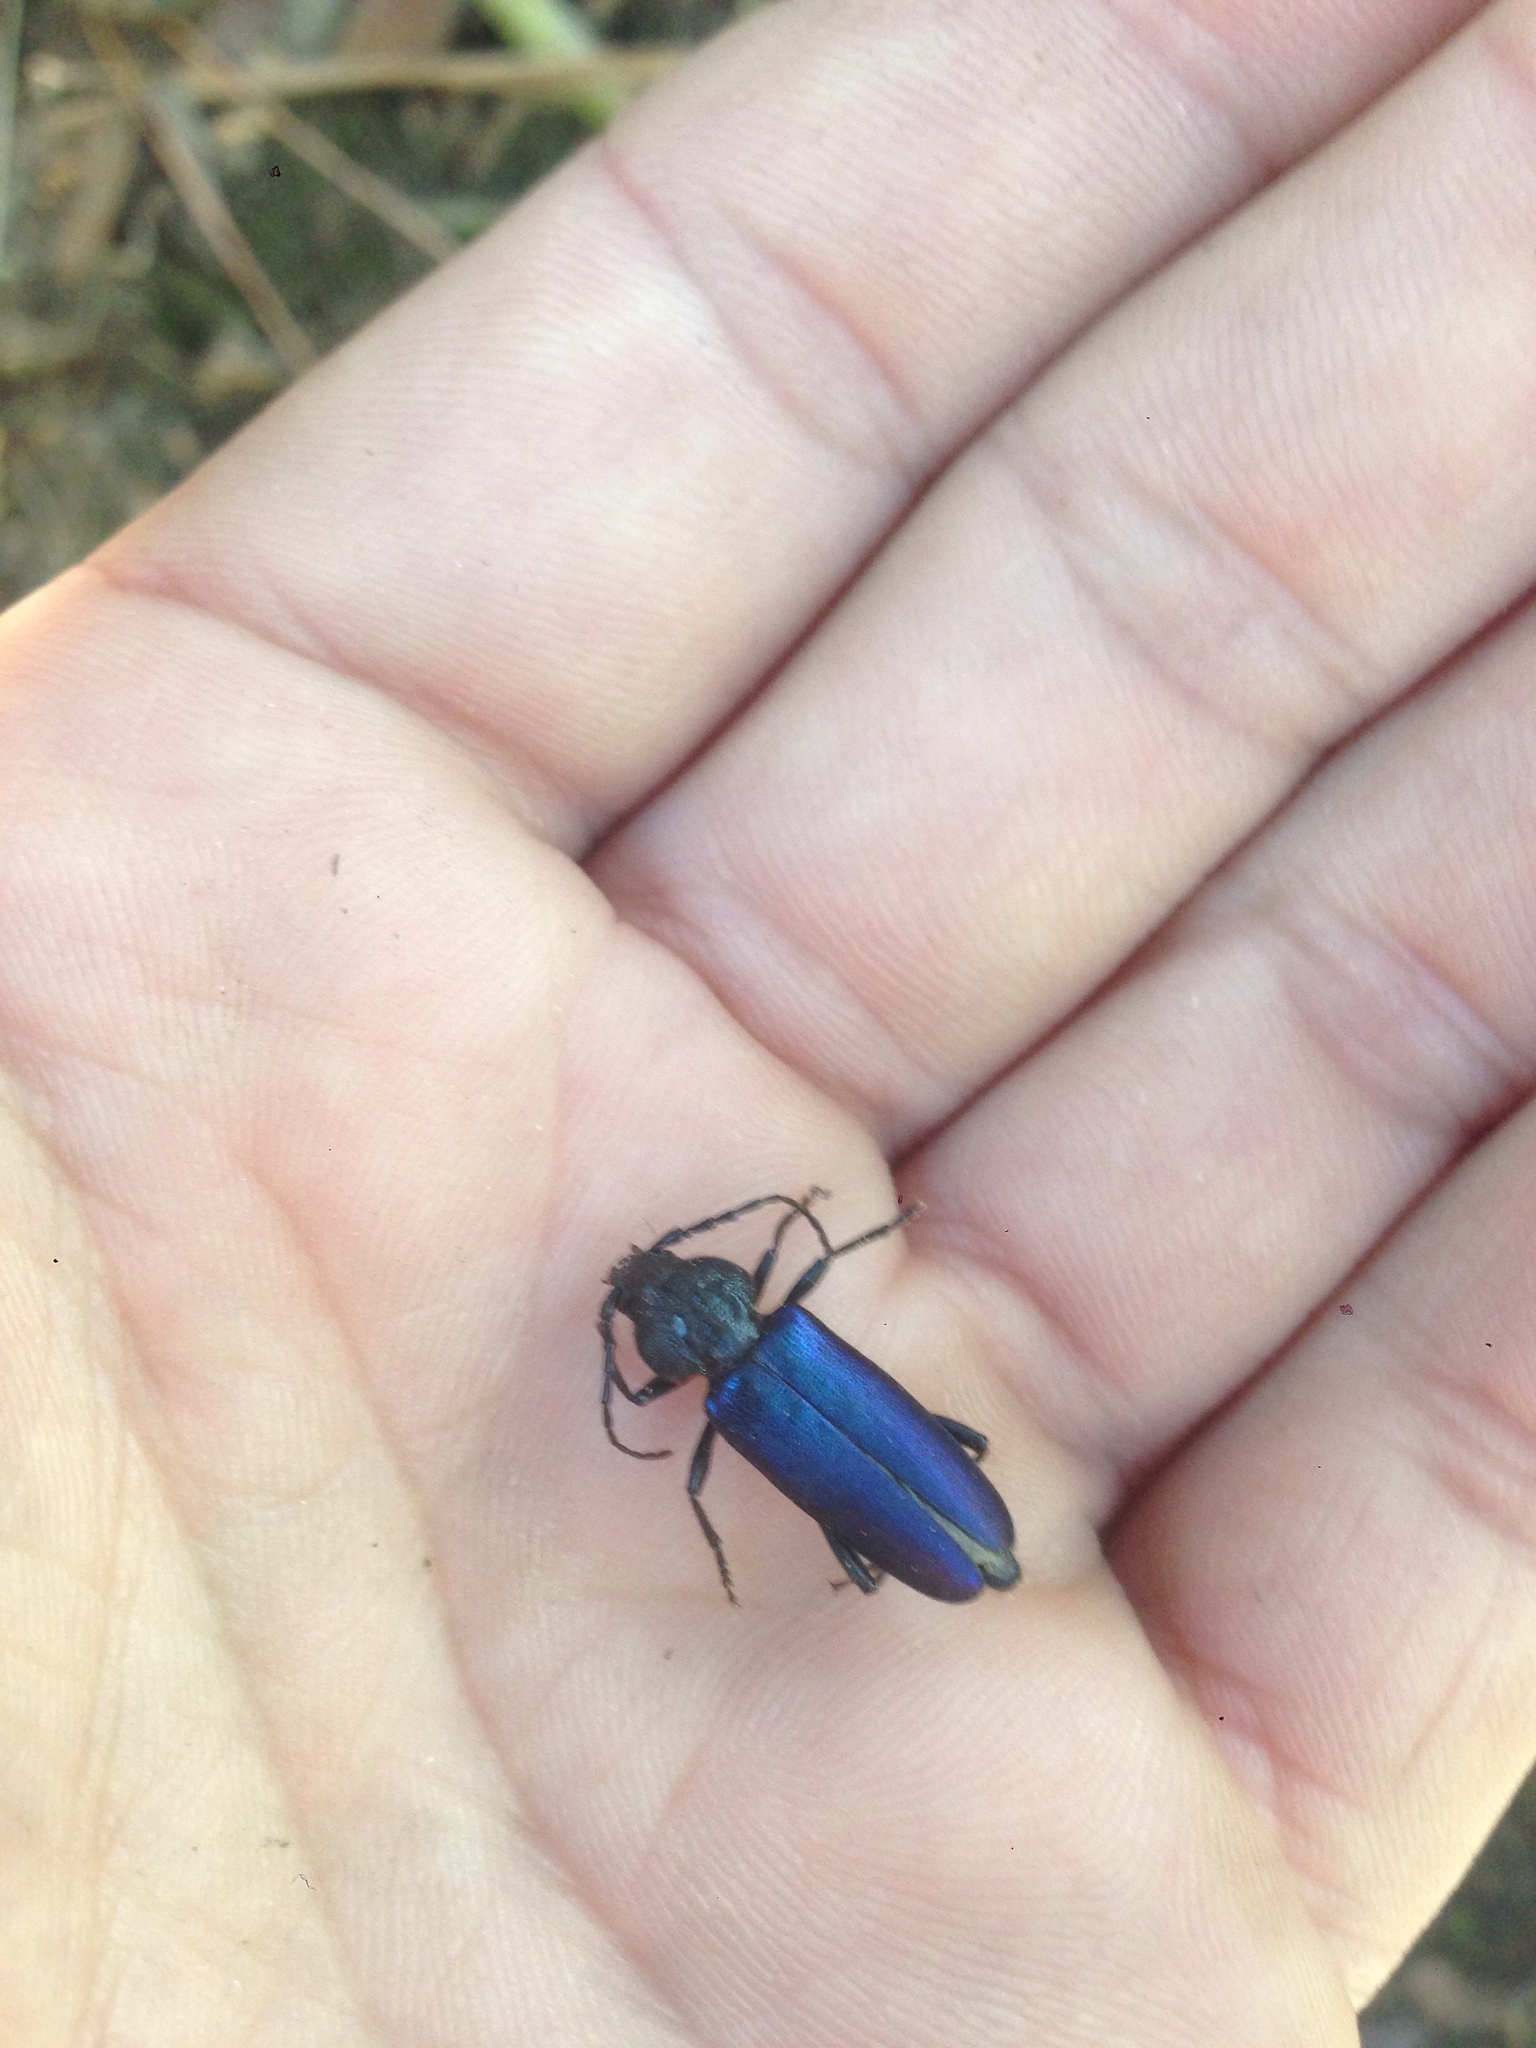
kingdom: Animalia
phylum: Arthropoda
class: Insecta
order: Coleoptera
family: Cerambycidae
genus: Semanotus
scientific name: Semanotus amethystinus
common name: Long-horned beetle
